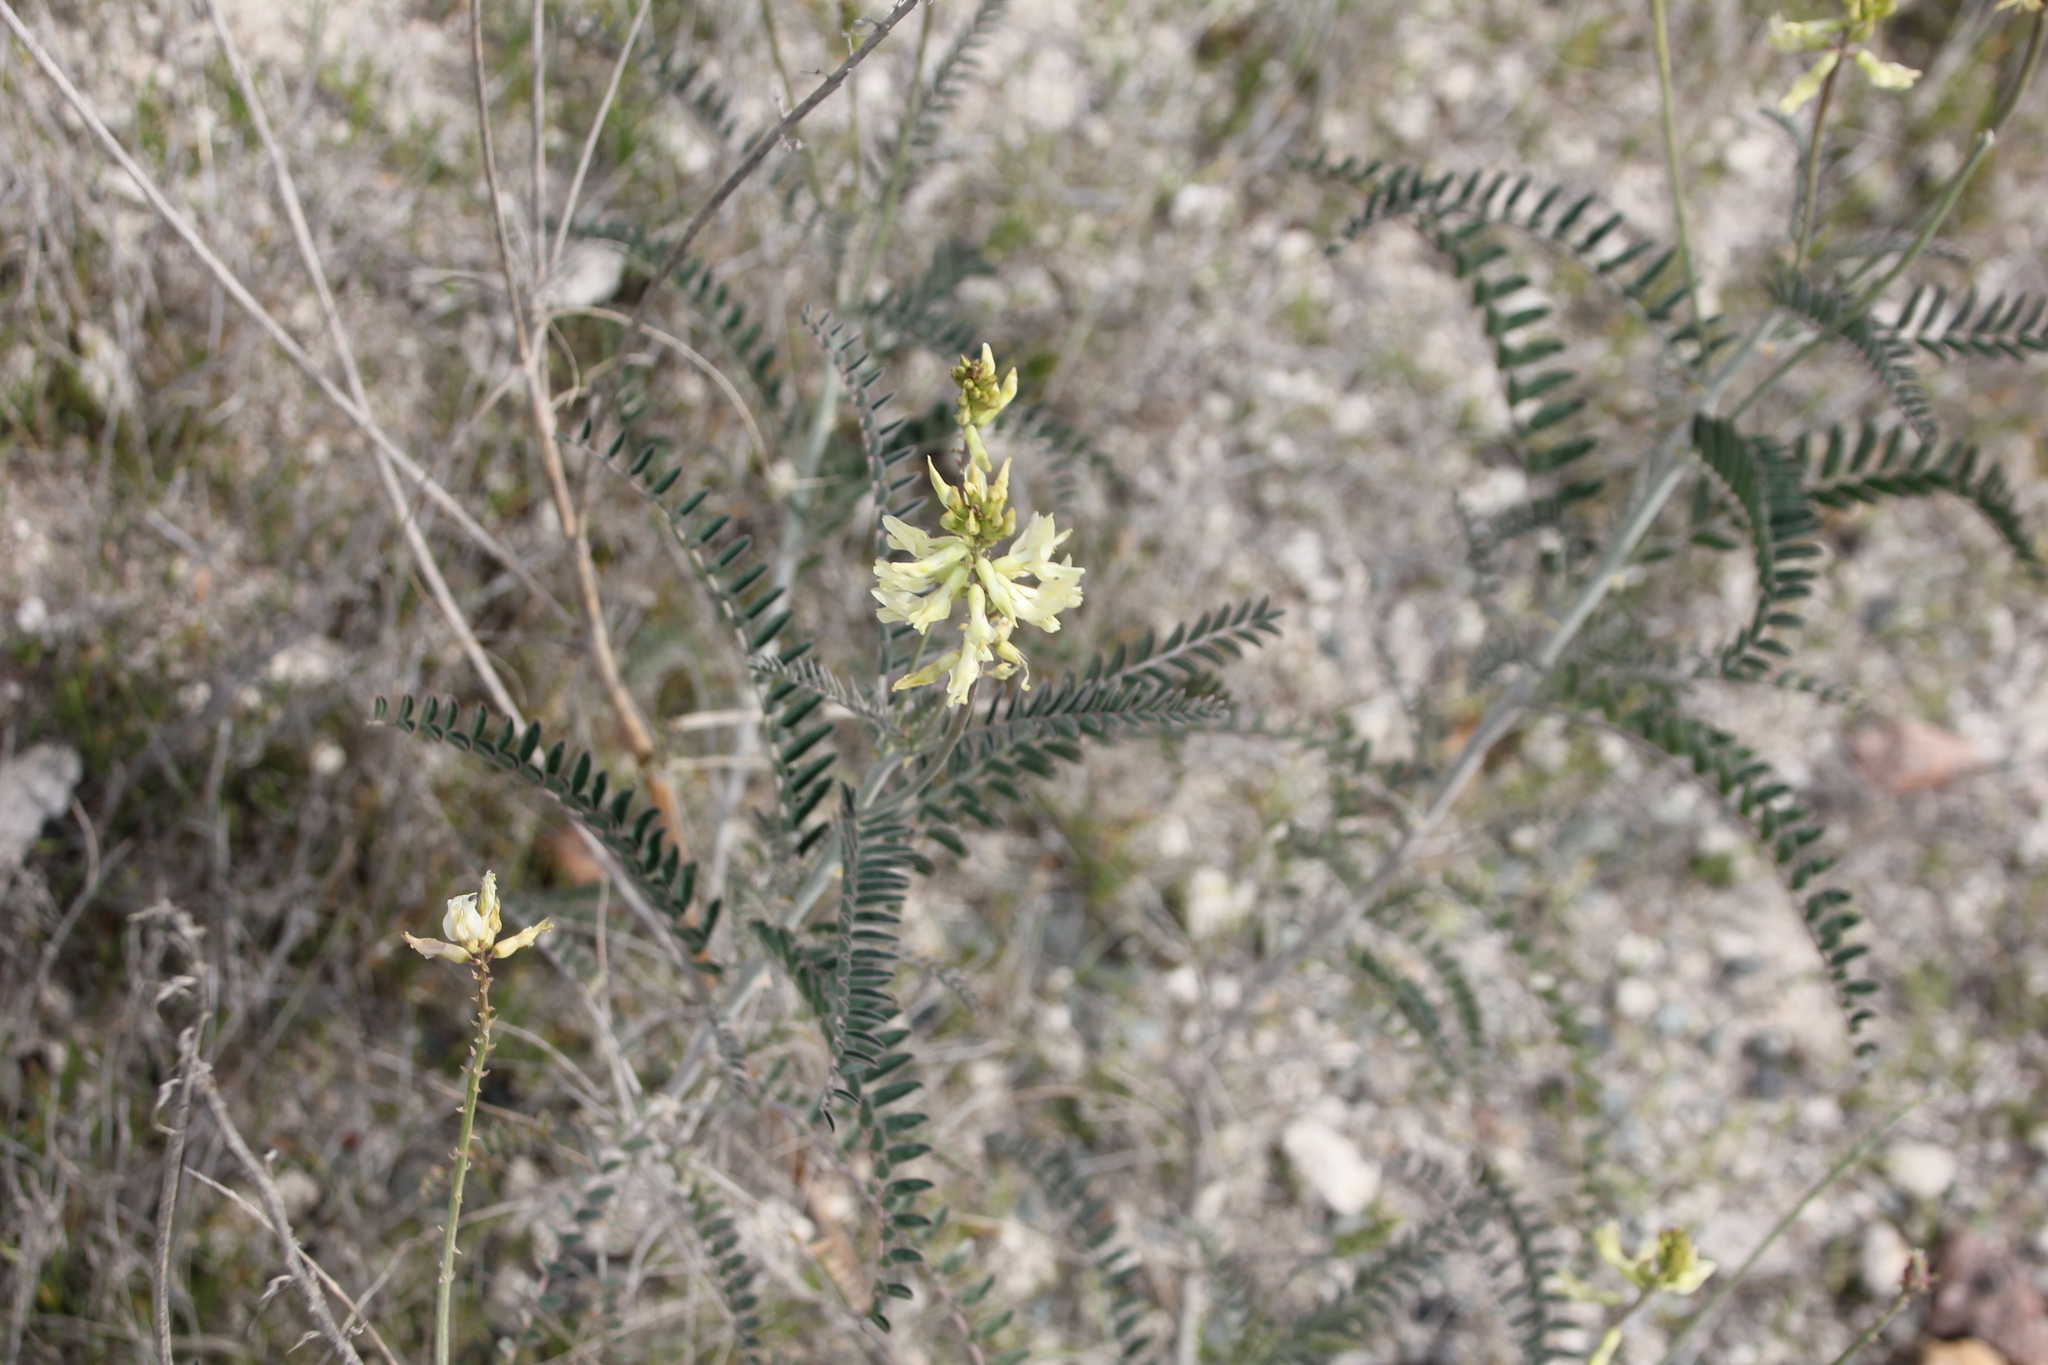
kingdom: Plantae
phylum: Tracheophyta
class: Magnoliopsida
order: Fabales
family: Fabaceae
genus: Astragalus
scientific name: Astragalus trichopodus
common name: Santa barbara milk-vetch
